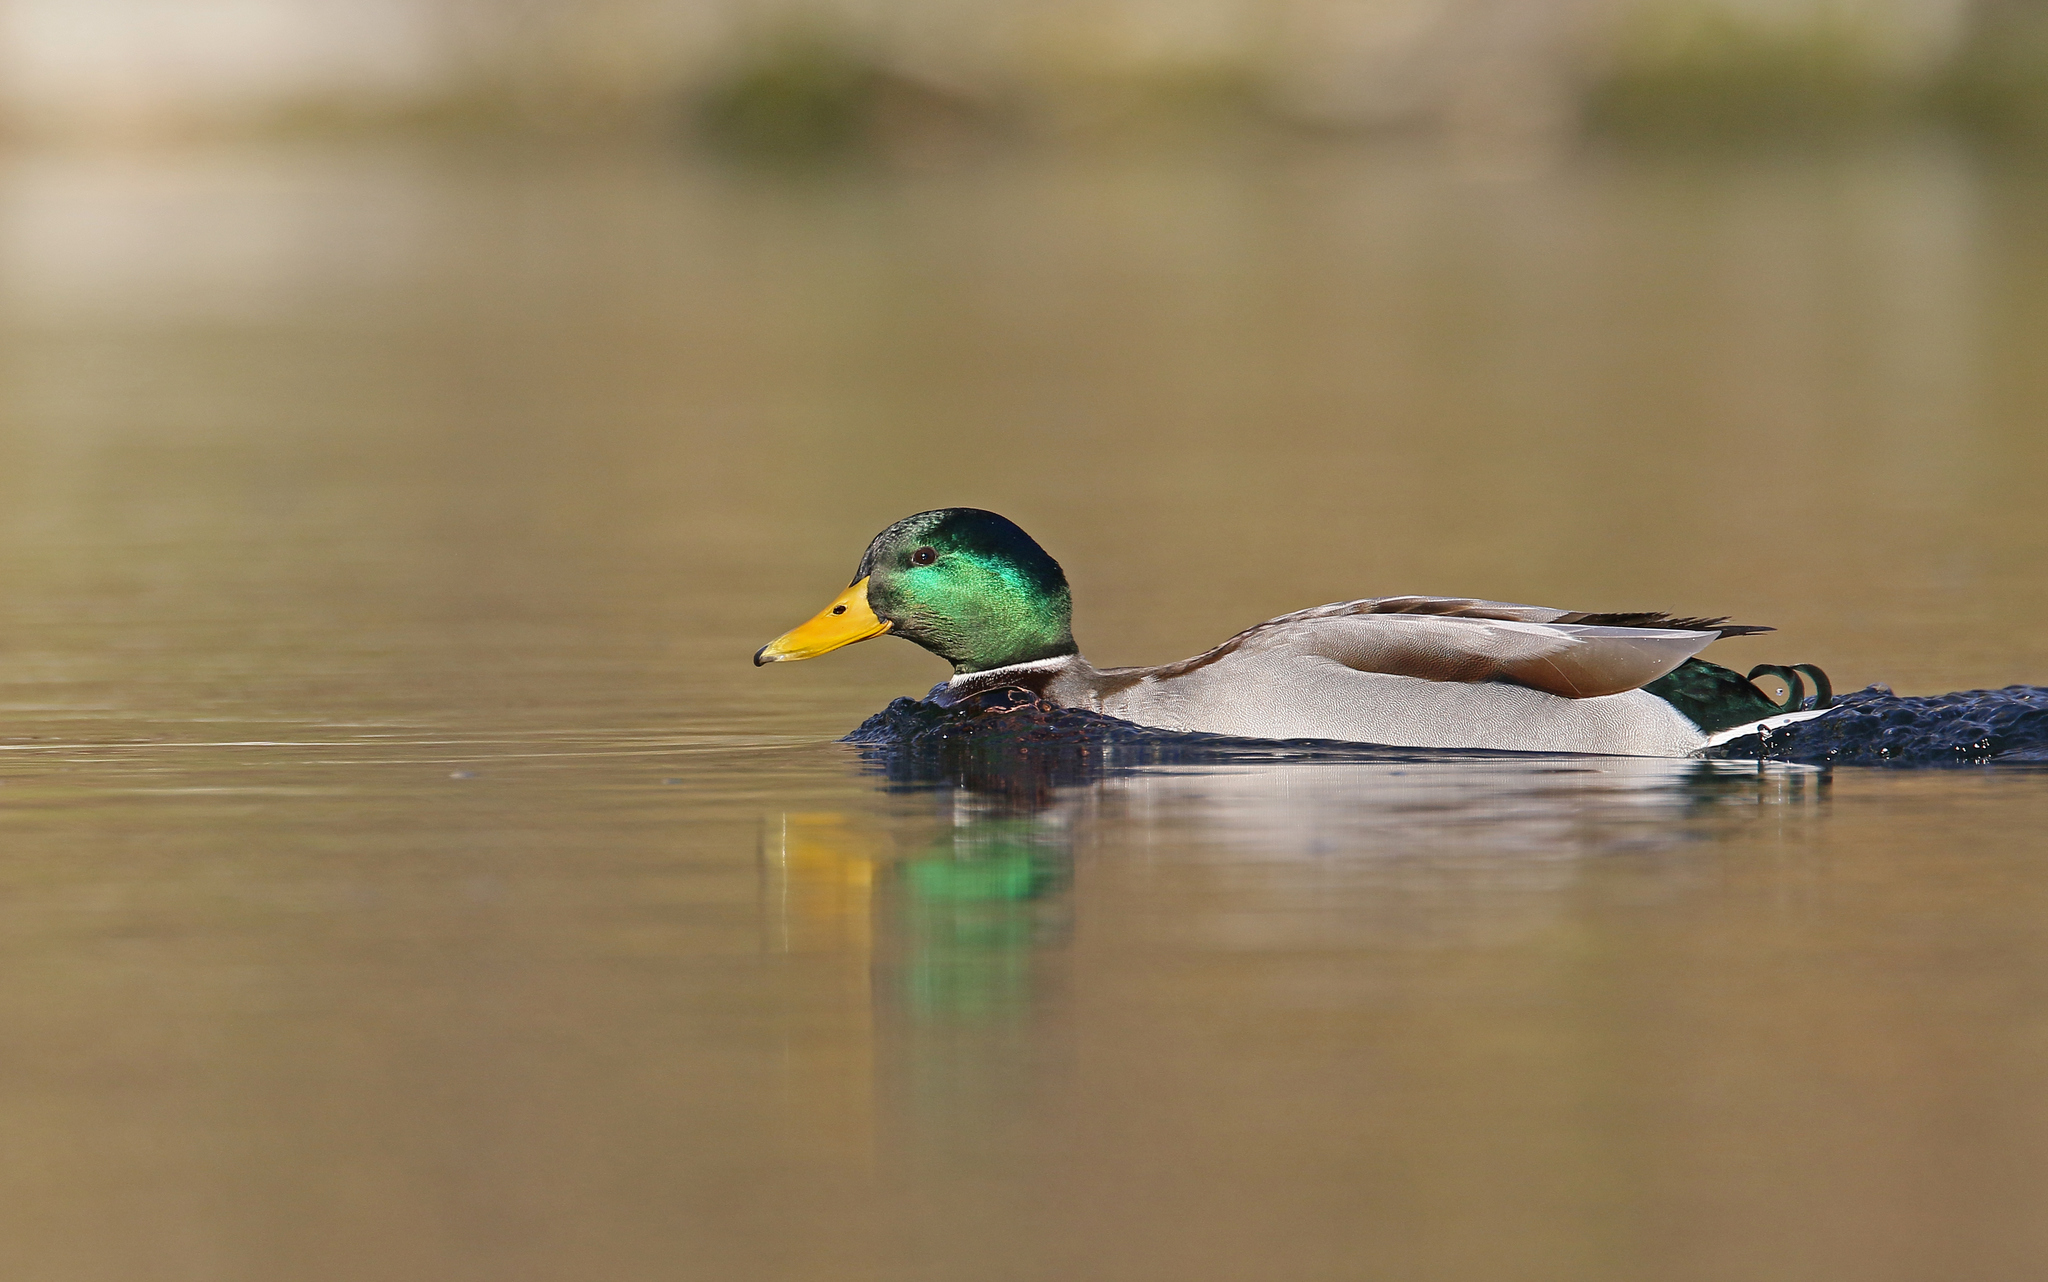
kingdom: Animalia
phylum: Chordata
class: Aves
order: Anseriformes
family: Anatidae
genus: Anas
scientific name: Anas platyrhynchos
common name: Mallard
